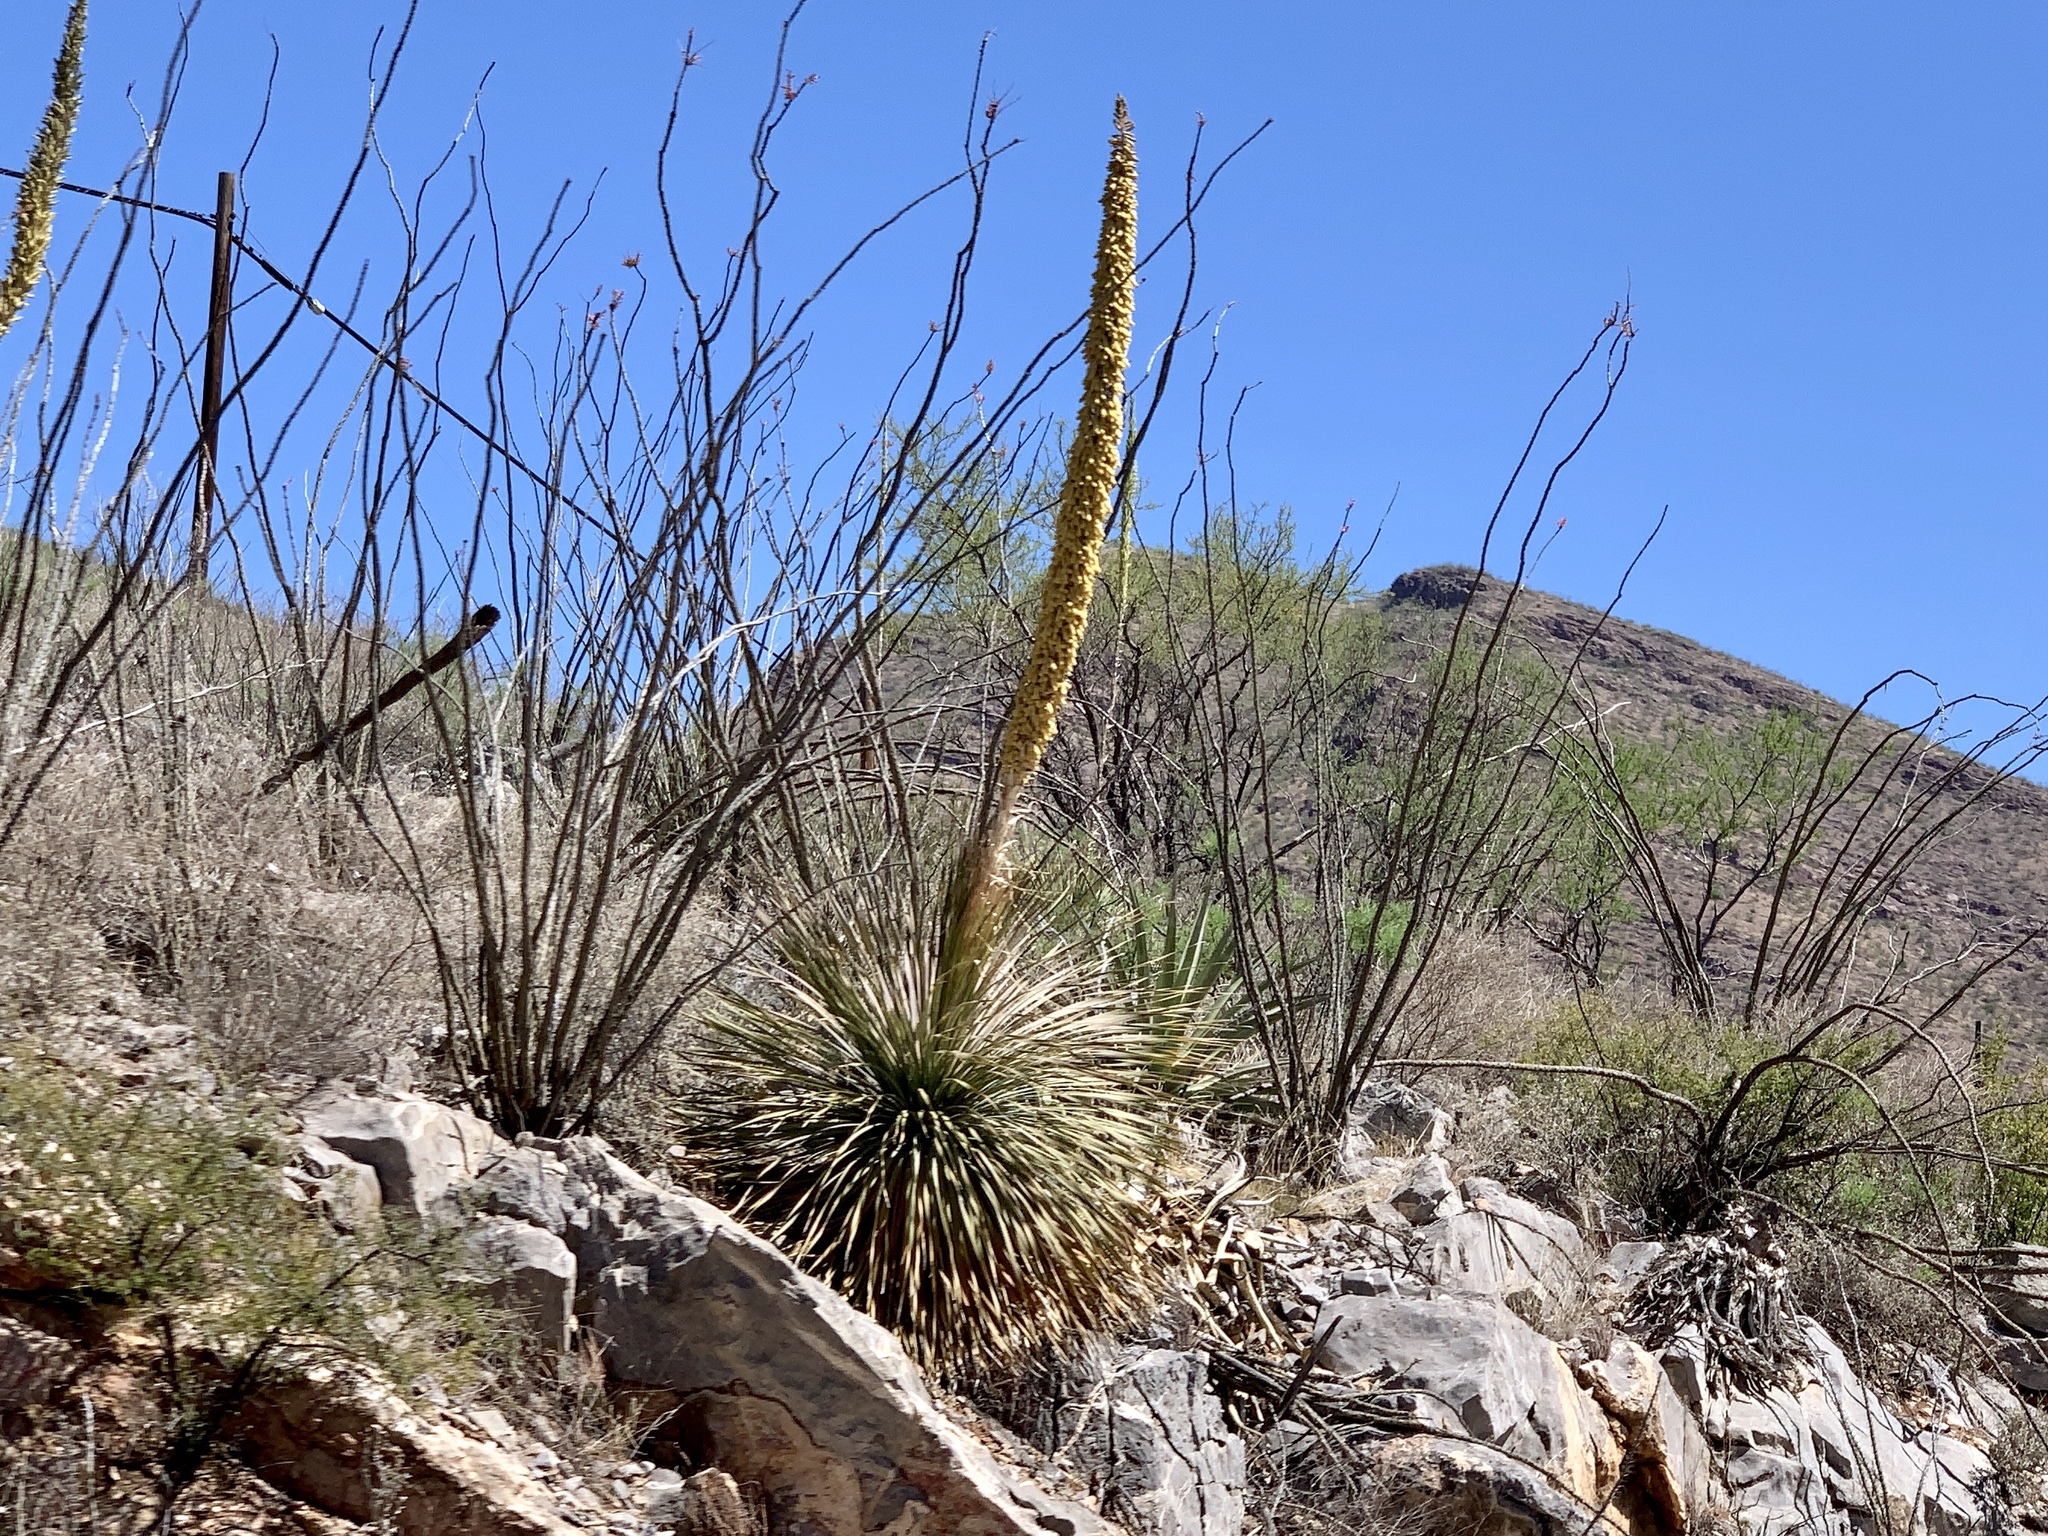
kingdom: Plantae
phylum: Tracheophyta
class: Liliopsida
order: Asparagales
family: Asparagaceae
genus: Dasylirion
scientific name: Dasylirion wheeleri
